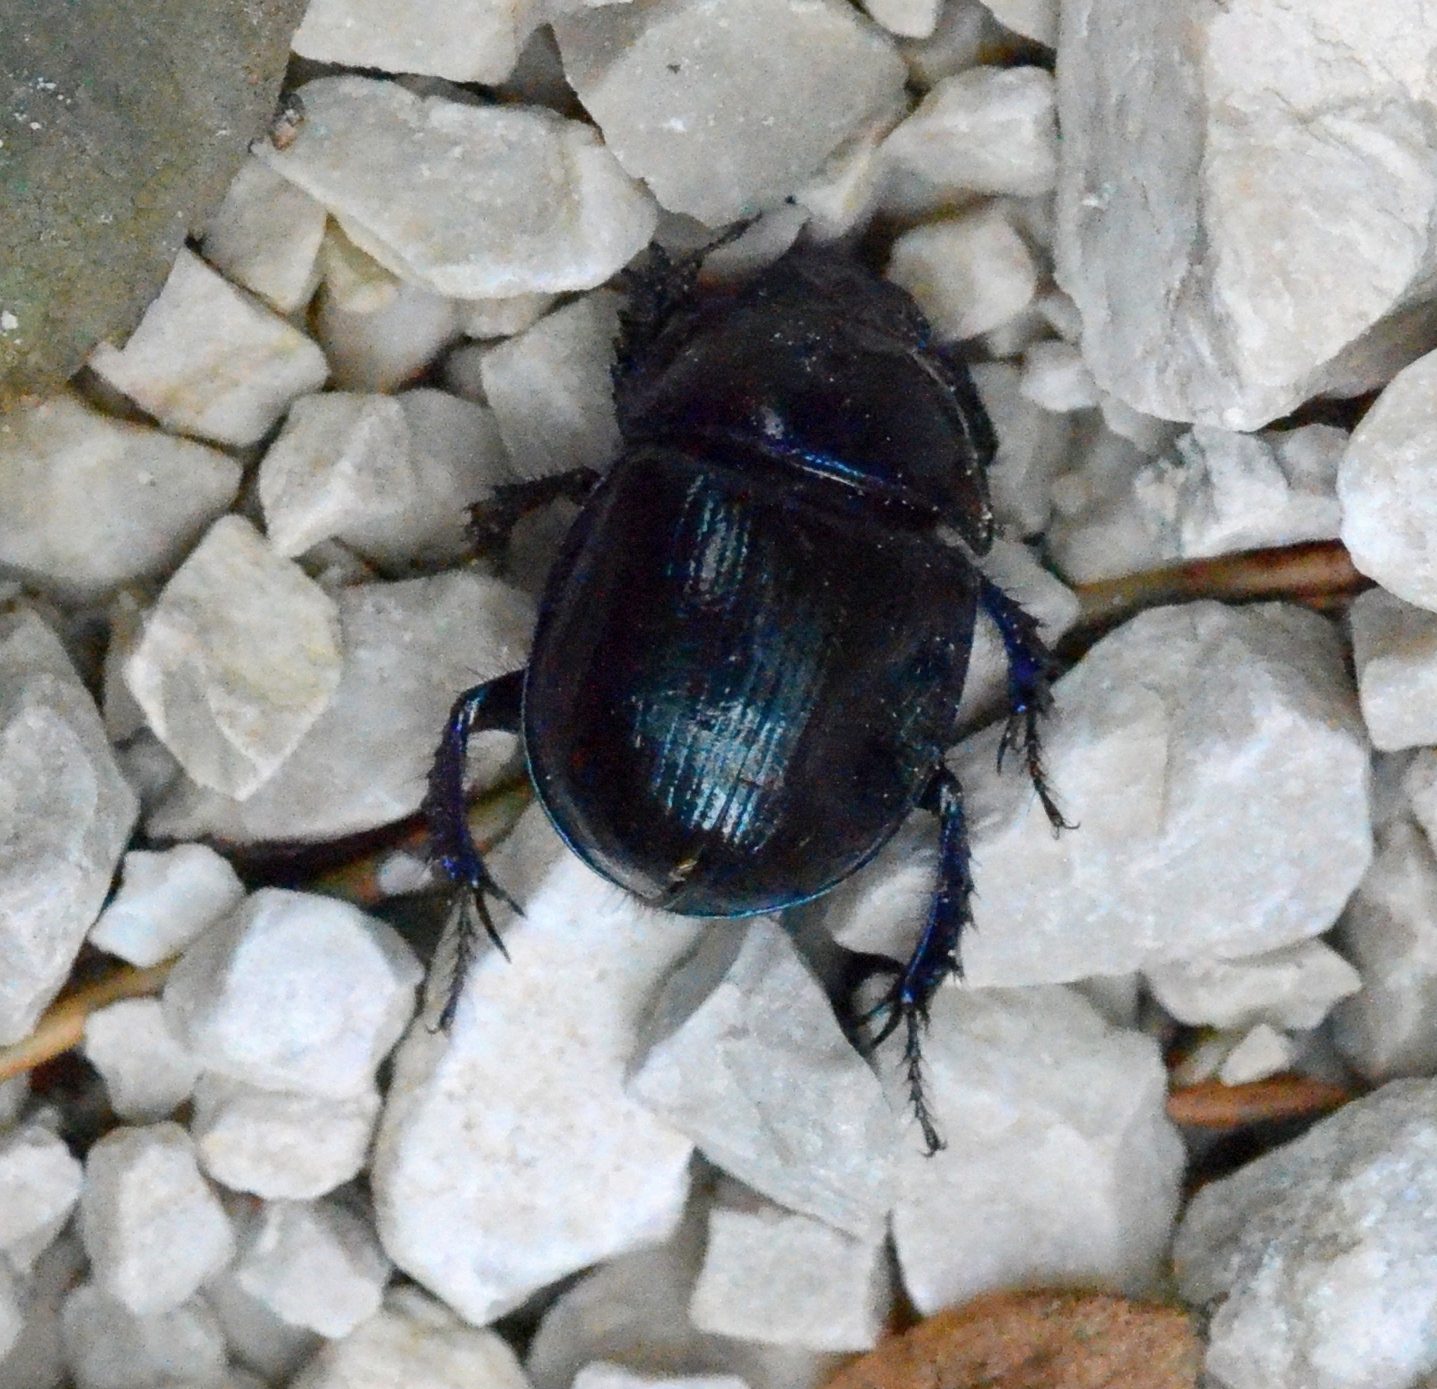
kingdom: Animalia
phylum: Arthropoda
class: Insecta
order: Coleoptera
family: Geotrupidae
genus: Anoplotrupes
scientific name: Anoplotrupes stercorosus
